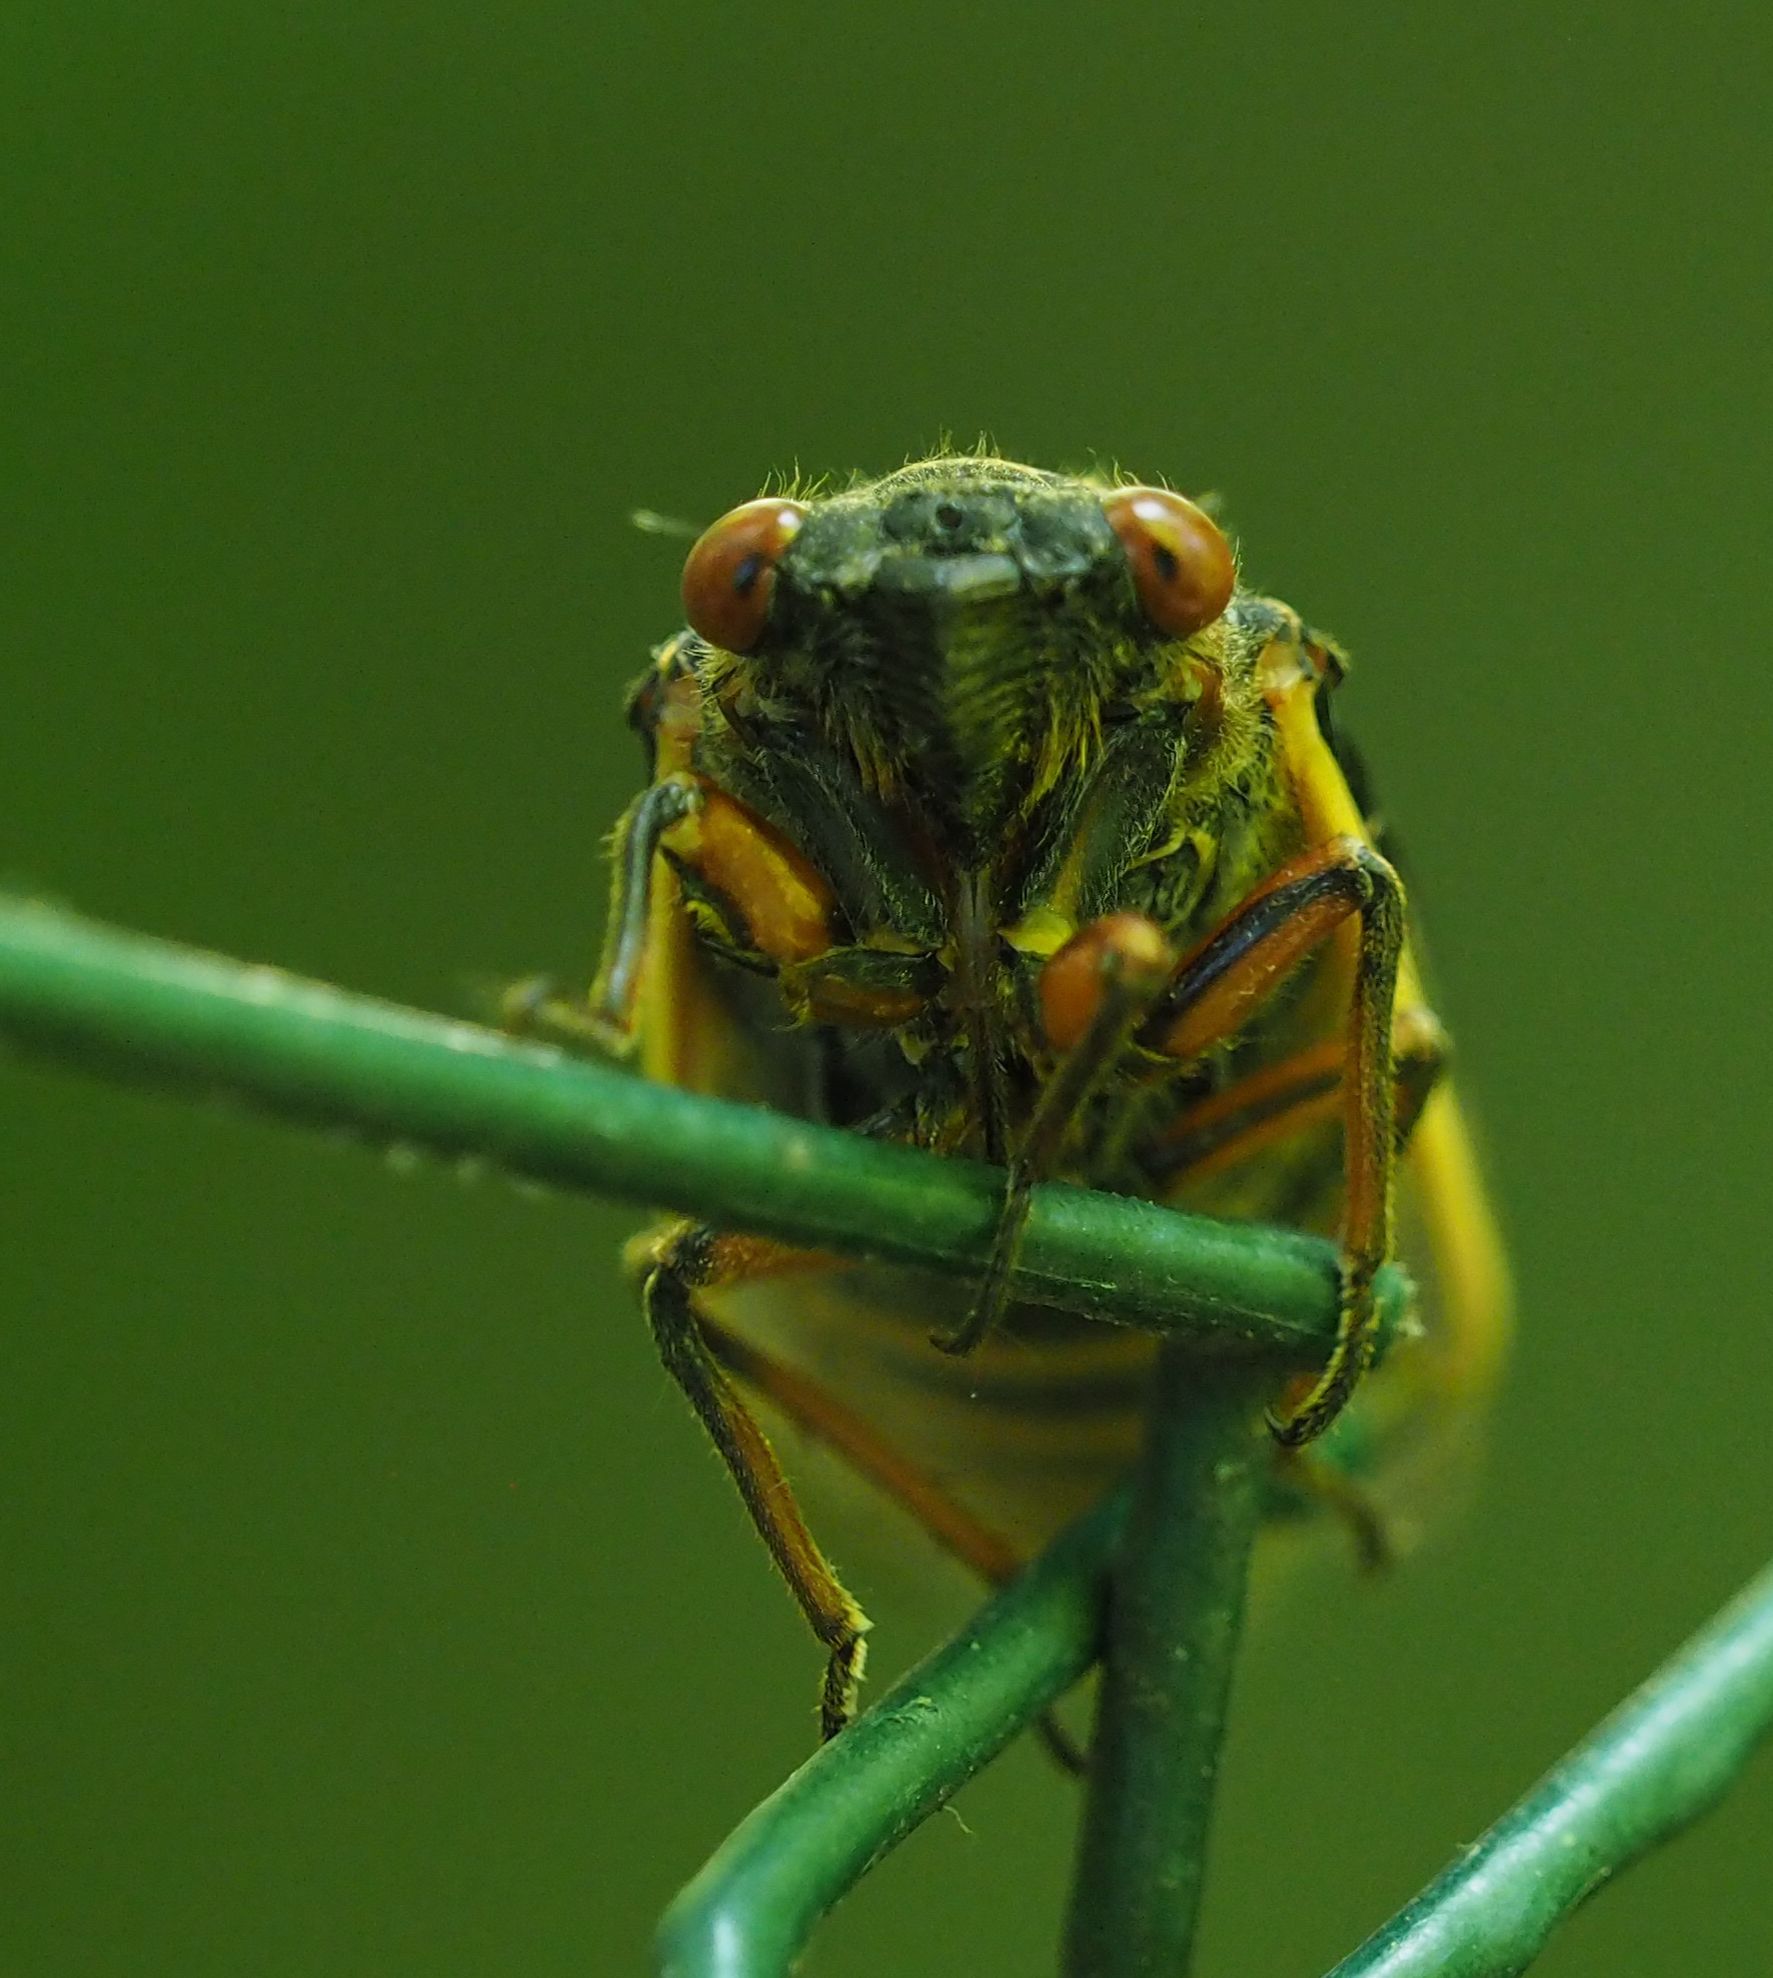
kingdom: Animalia
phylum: Arthropoda
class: Insecta
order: Hemiptera
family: Cicadidae
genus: Magicicada
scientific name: Magicicada septendecim
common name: Periodical cicada
